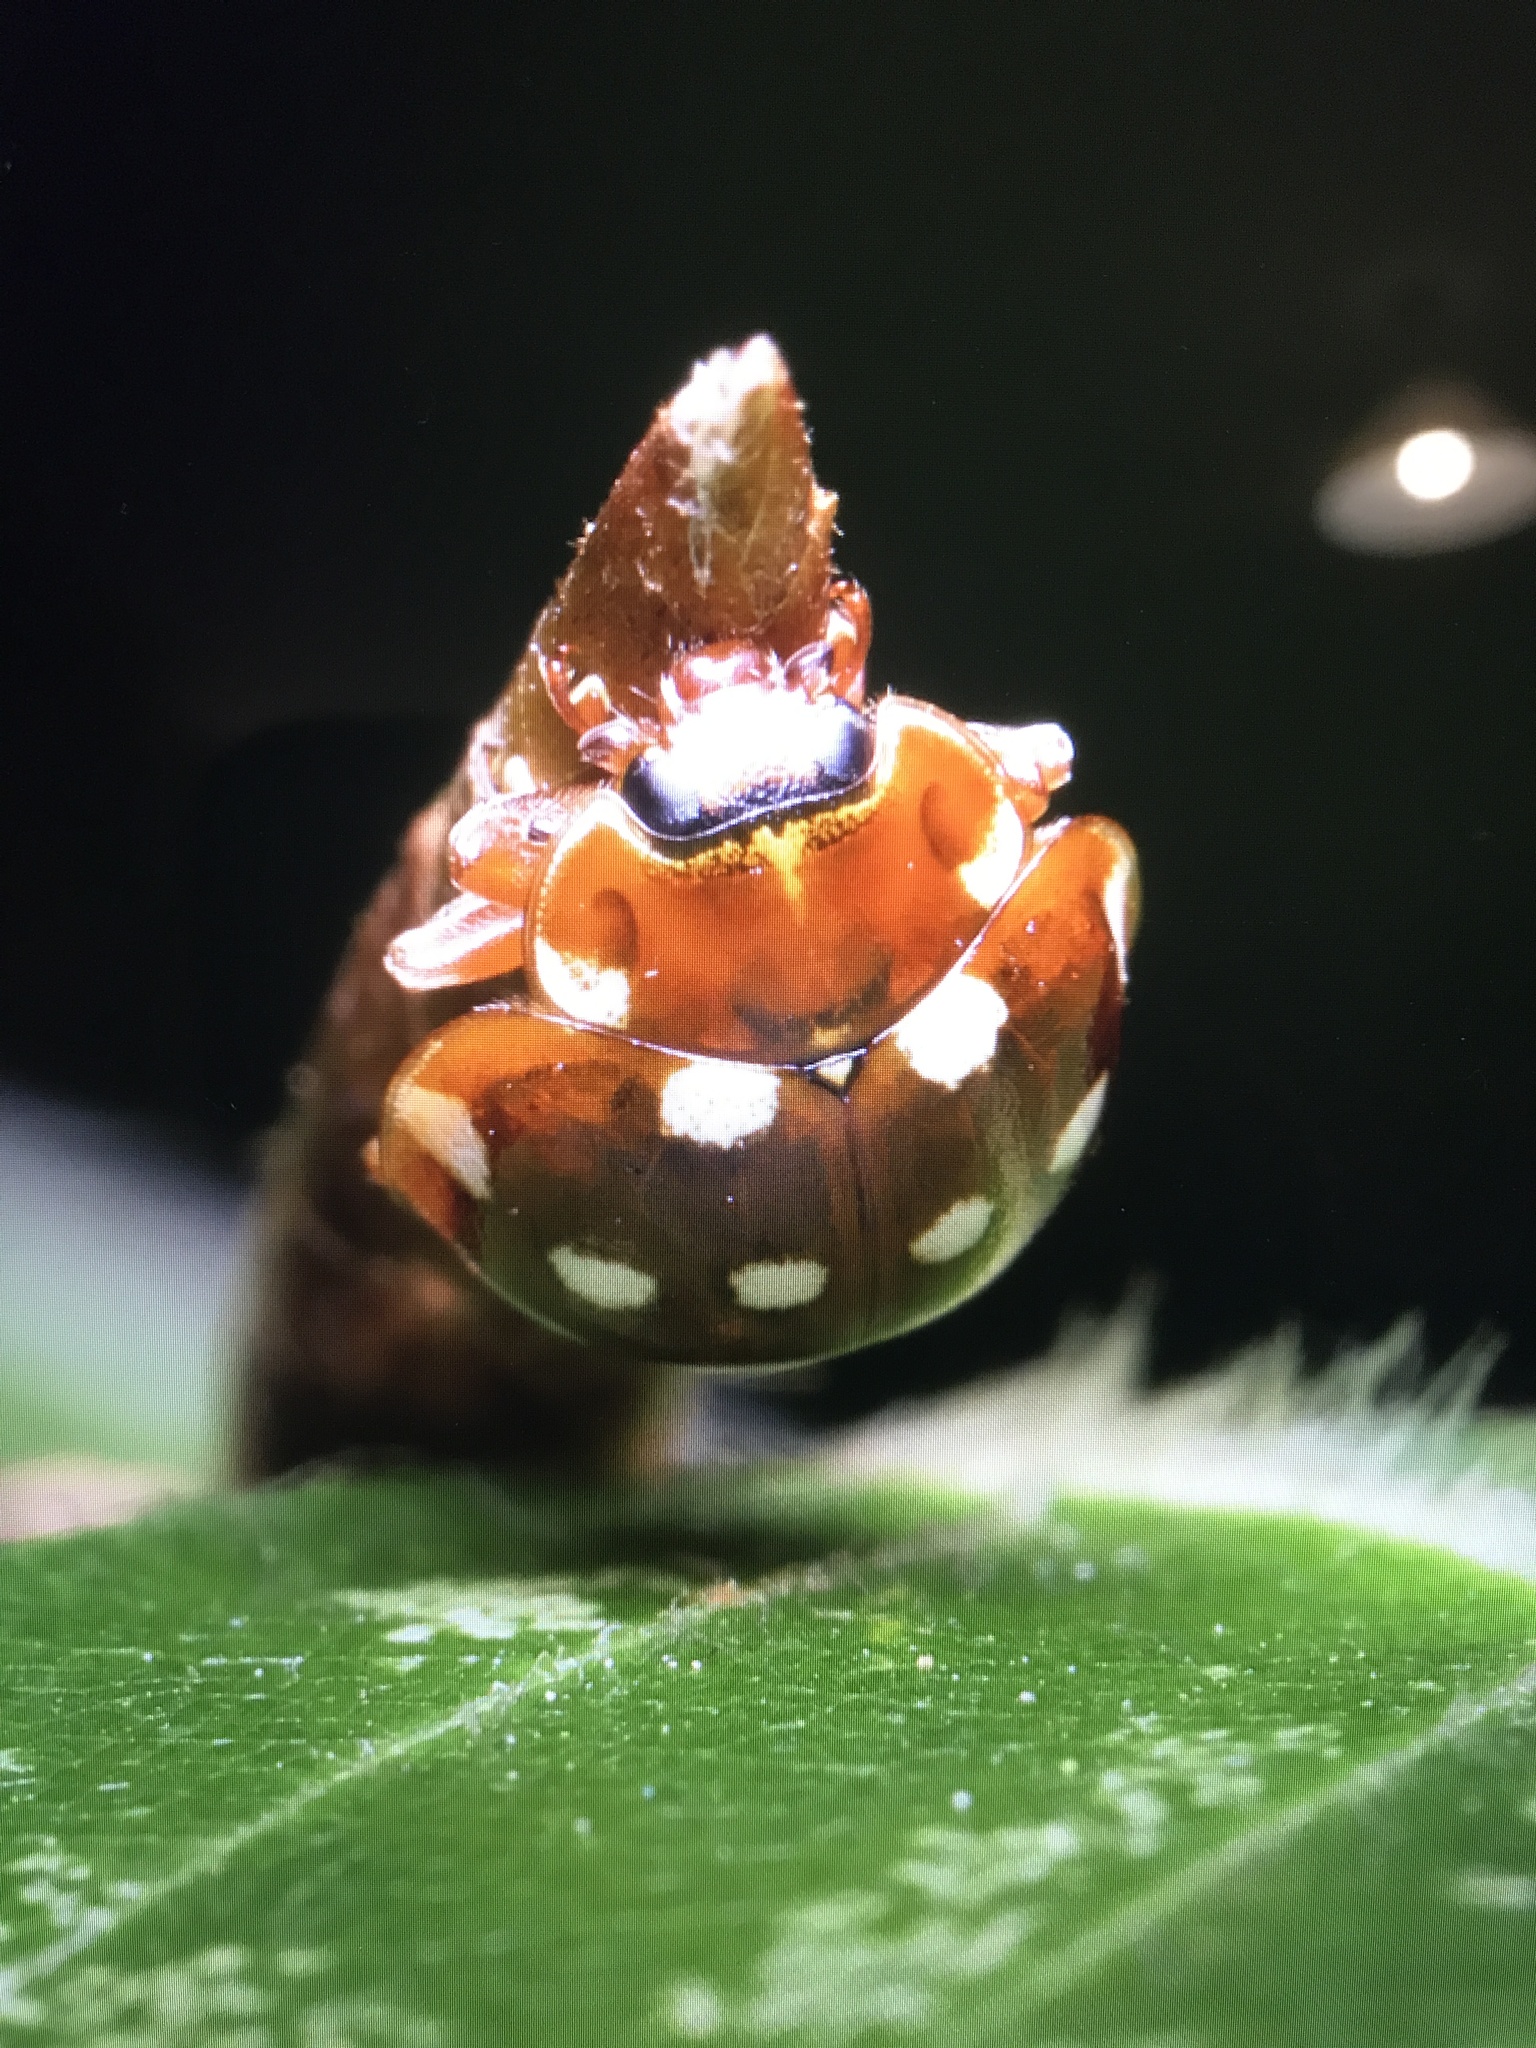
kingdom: Animalia
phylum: Arthropoda
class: Insecta
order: Coleoptera
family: Coccinellidae
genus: Calvia
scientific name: Calvia quatuordecimguttata
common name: Cream-spot ladybird
